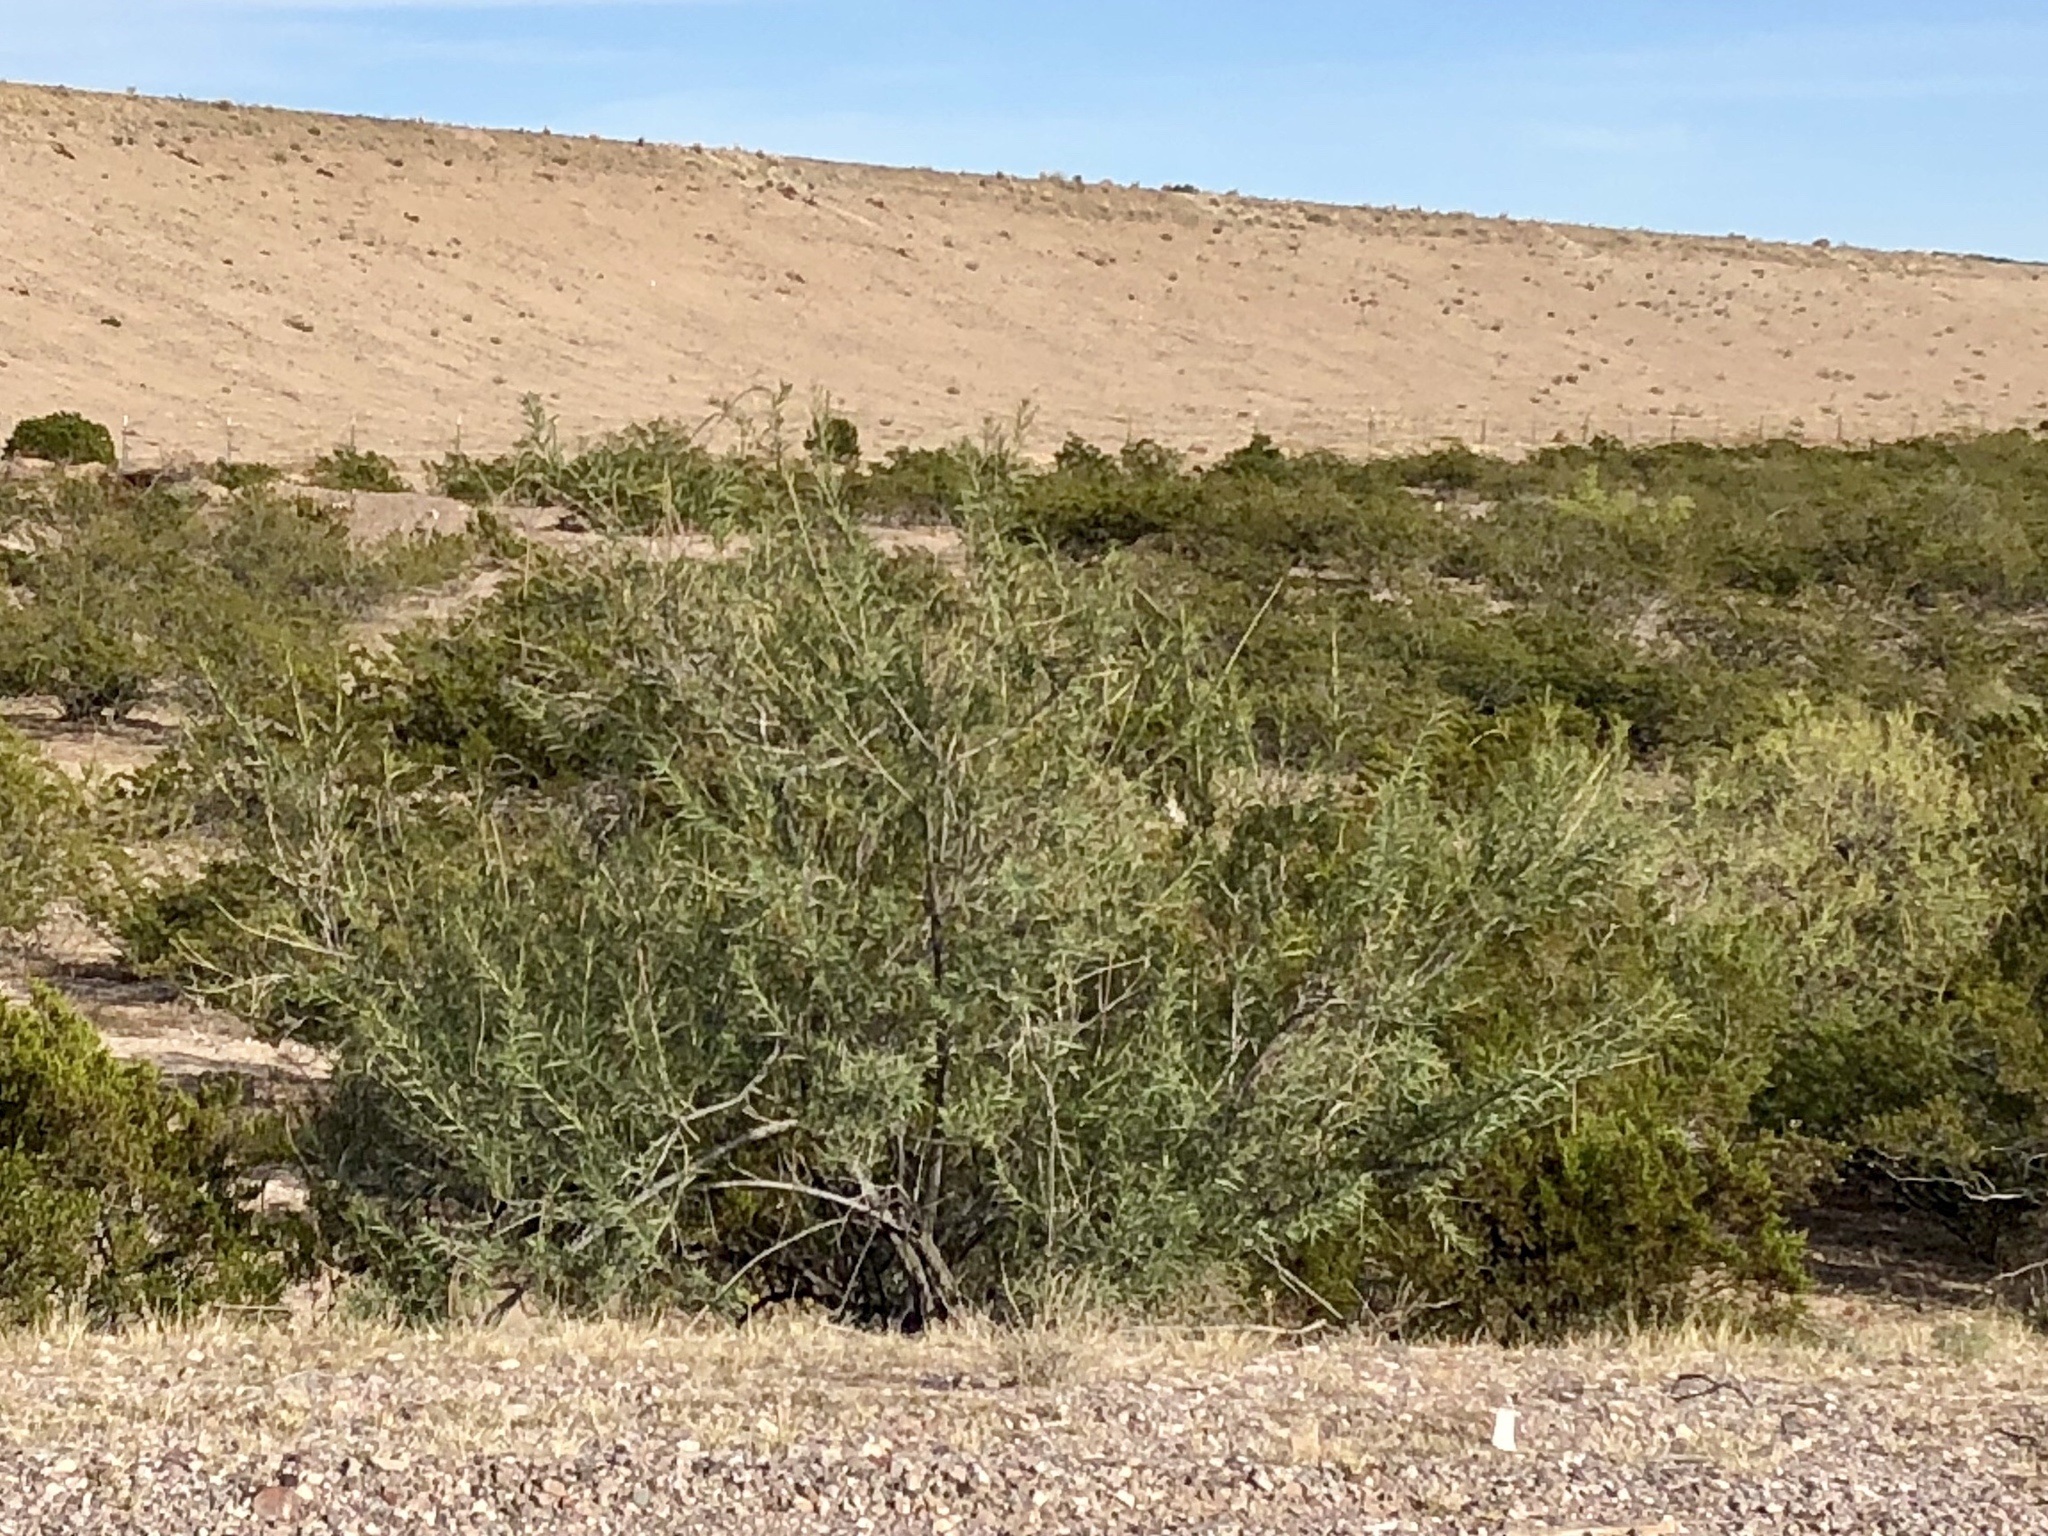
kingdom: Plantae
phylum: Tracheophyta
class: Magnoliopsida
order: Lamiales
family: Bignoniaceae
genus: Chilopsis
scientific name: Chilopsis linearis
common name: Desert-willow
